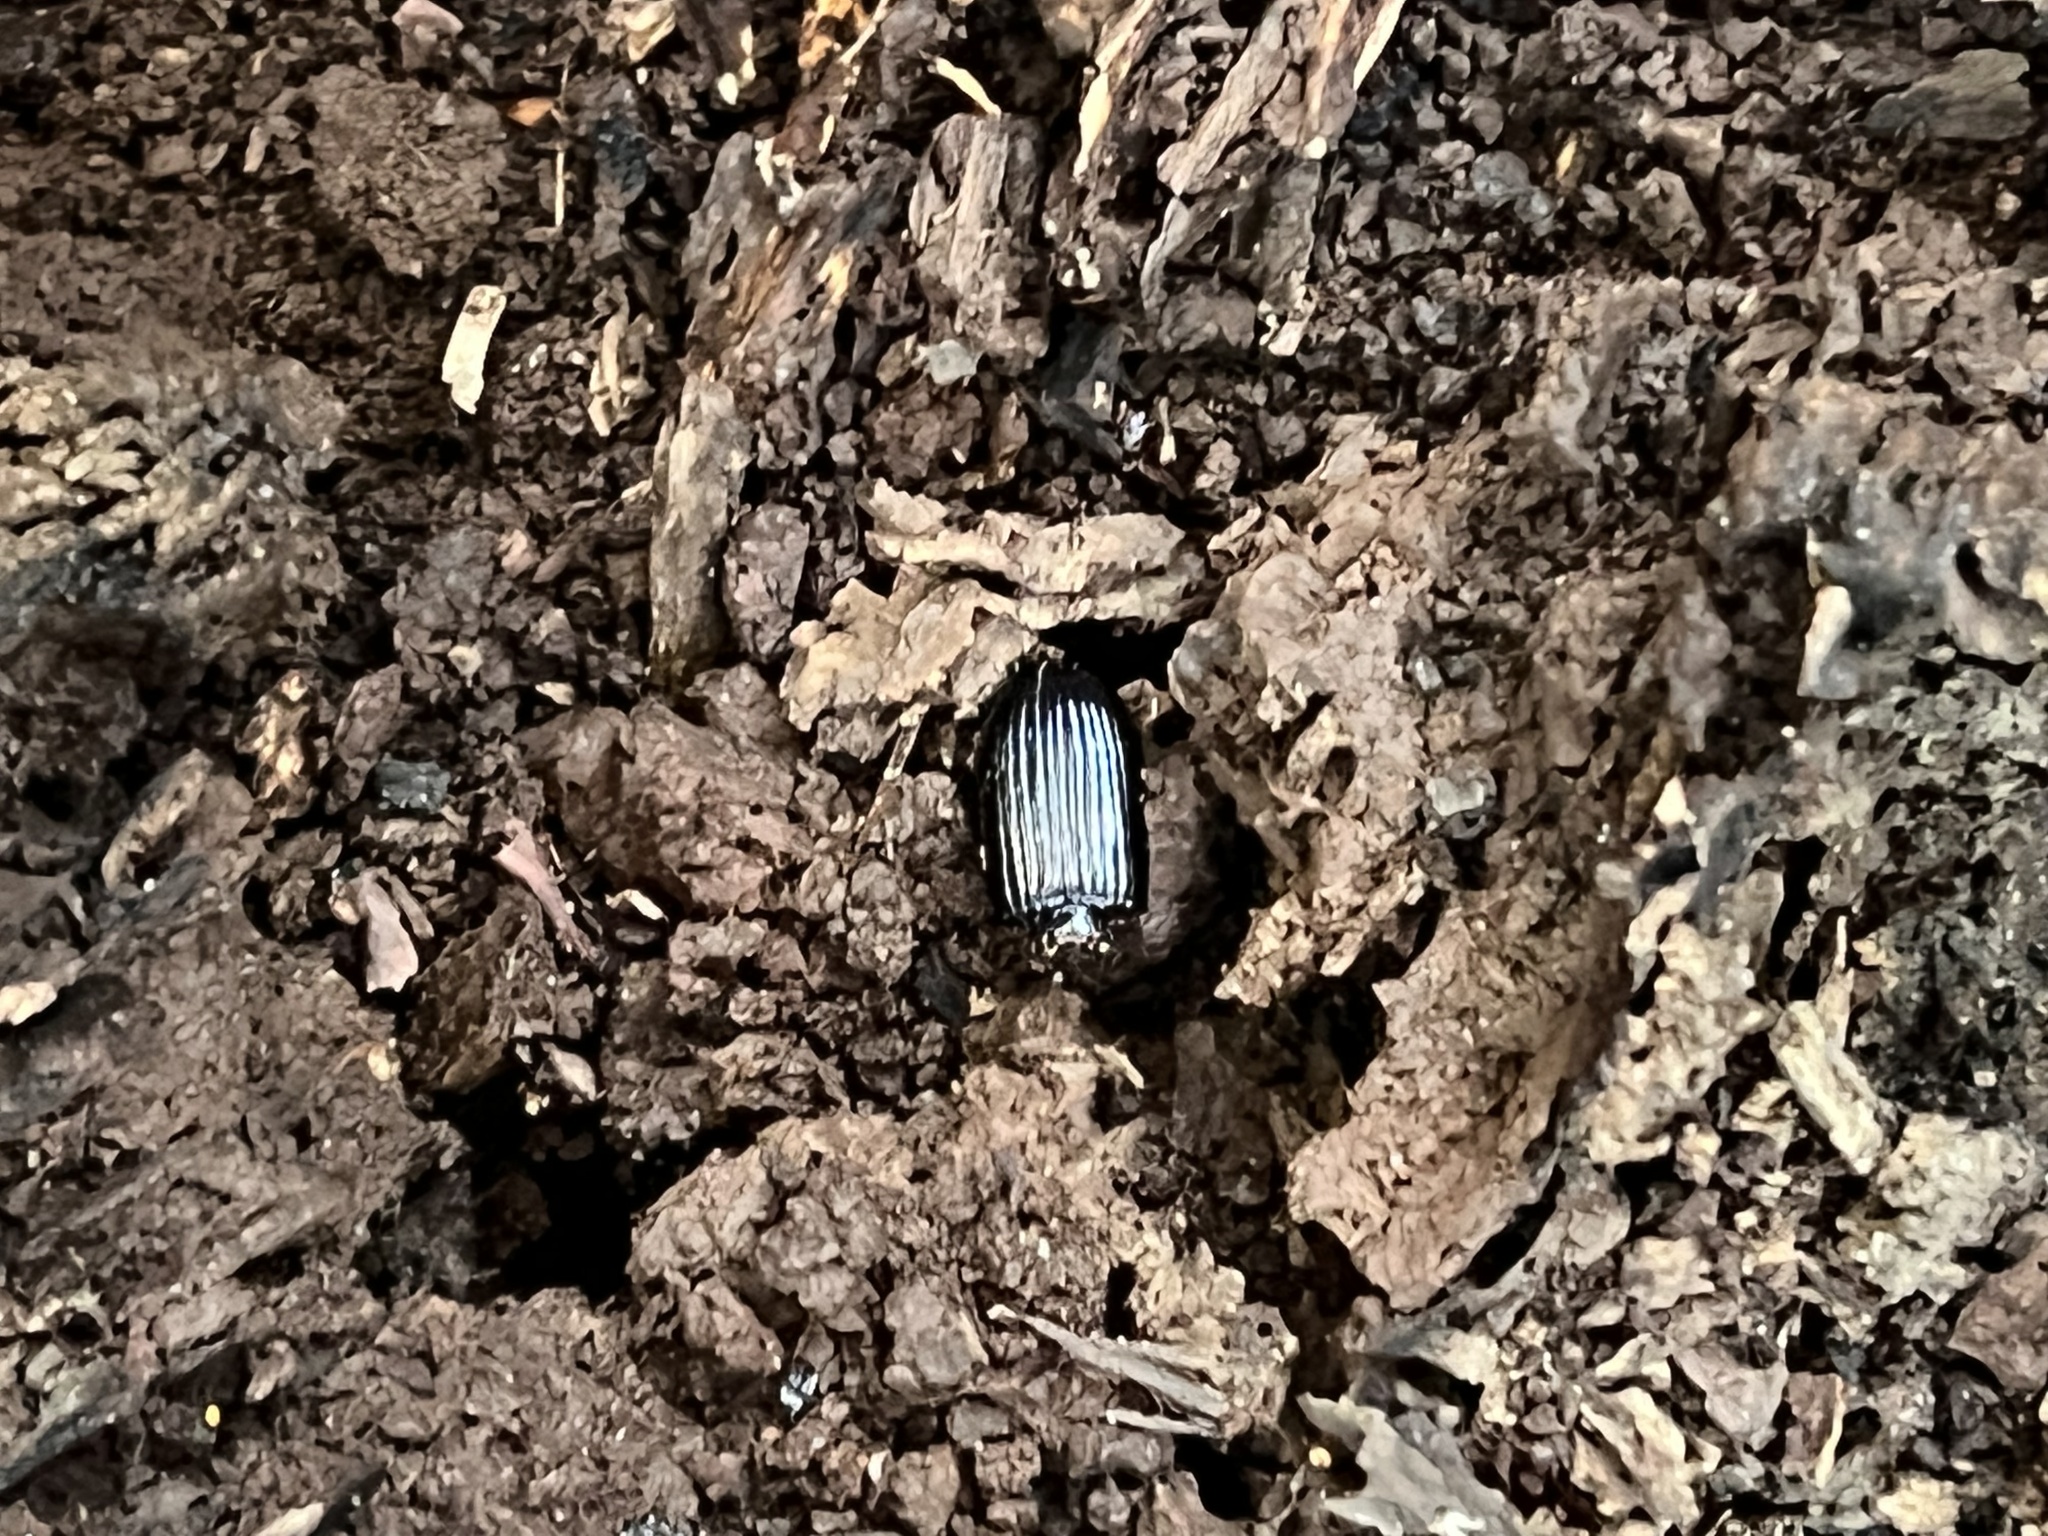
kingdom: Animalia
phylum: Arthropoda
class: Insecta
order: Coleoptera
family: Passalidae
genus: Odontotaenius
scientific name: Odontotaenius disjunctus
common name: Patent leather beetle
